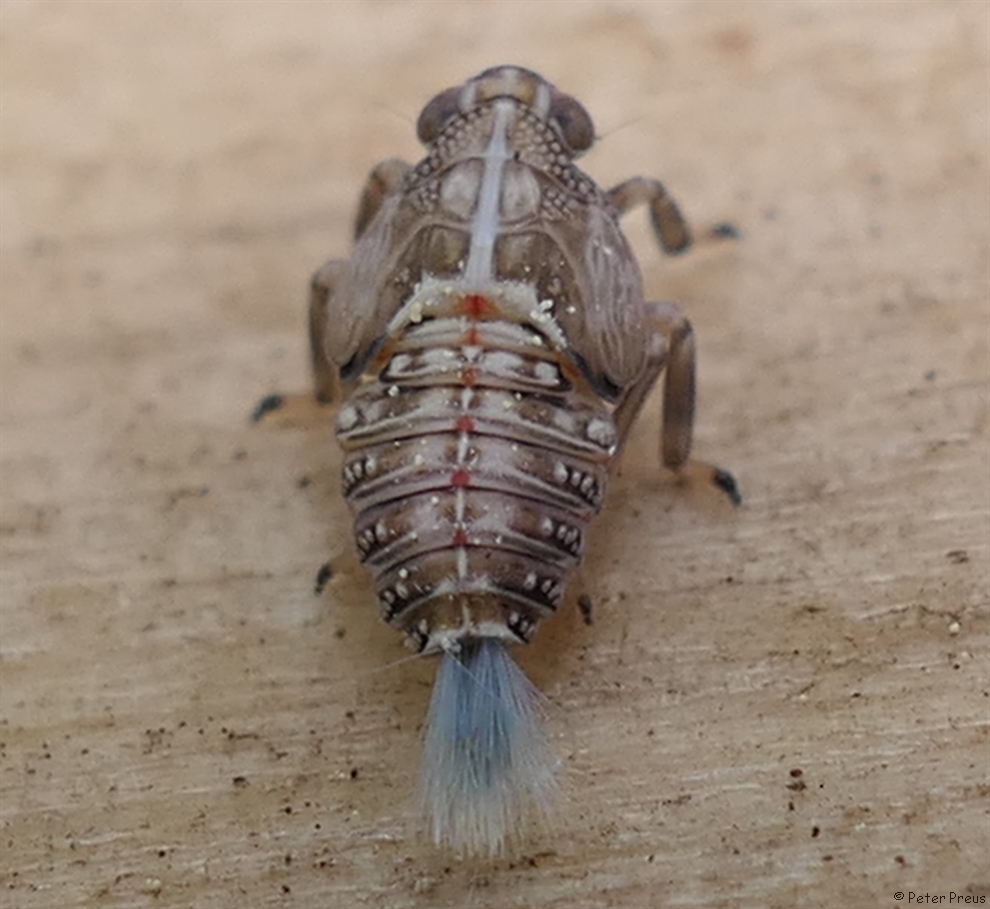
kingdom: Animalia
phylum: Arthropoda
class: Insecta
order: Hemiptera
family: Issidae
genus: Issus
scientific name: Issus coleoptratus
